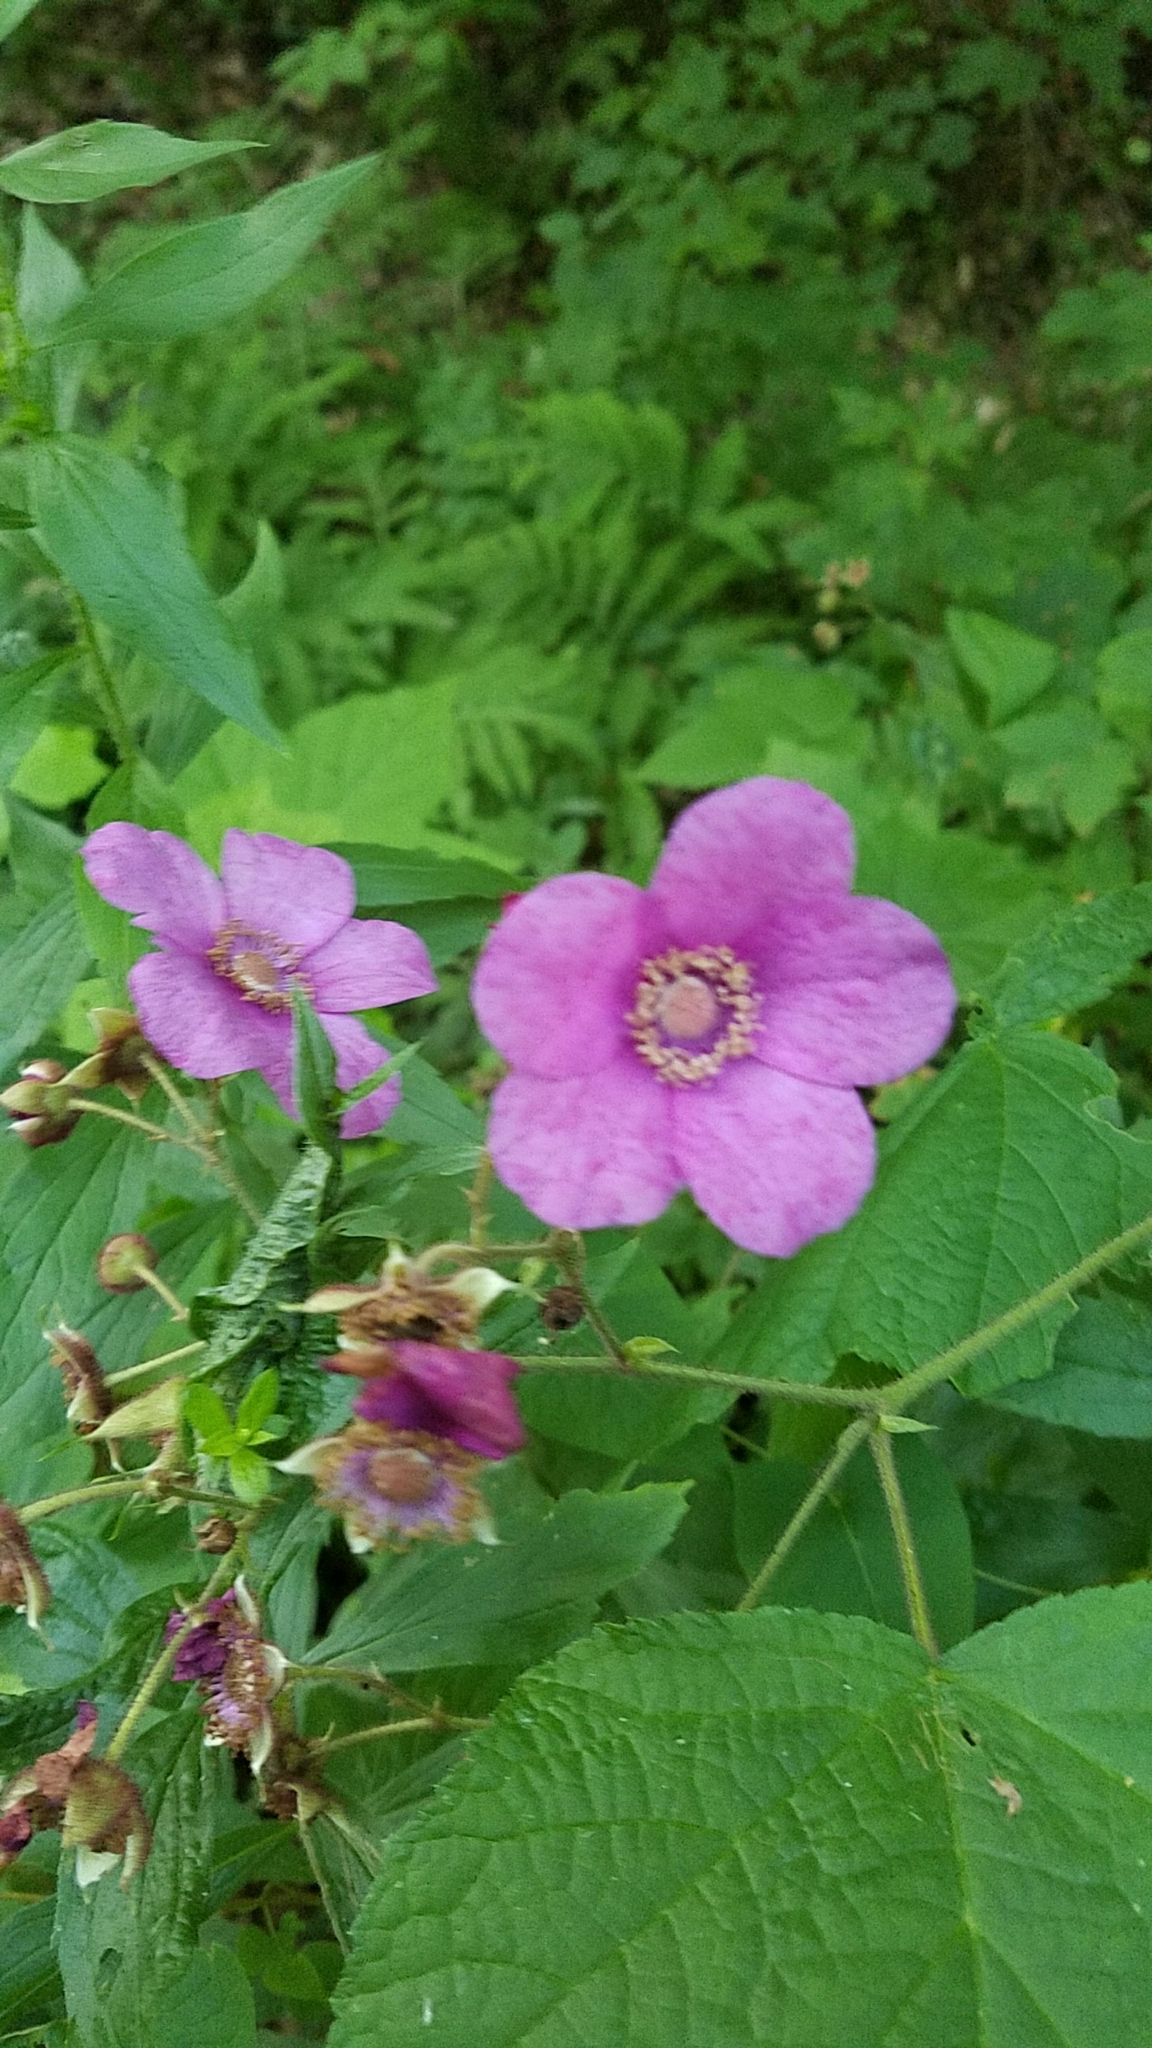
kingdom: Plantae
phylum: Tracheophyta
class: Magnoliopsida
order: Rosales
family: Rosaceae
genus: Rubus
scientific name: Rubus odoratus
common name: Purple-flowered raspberry
